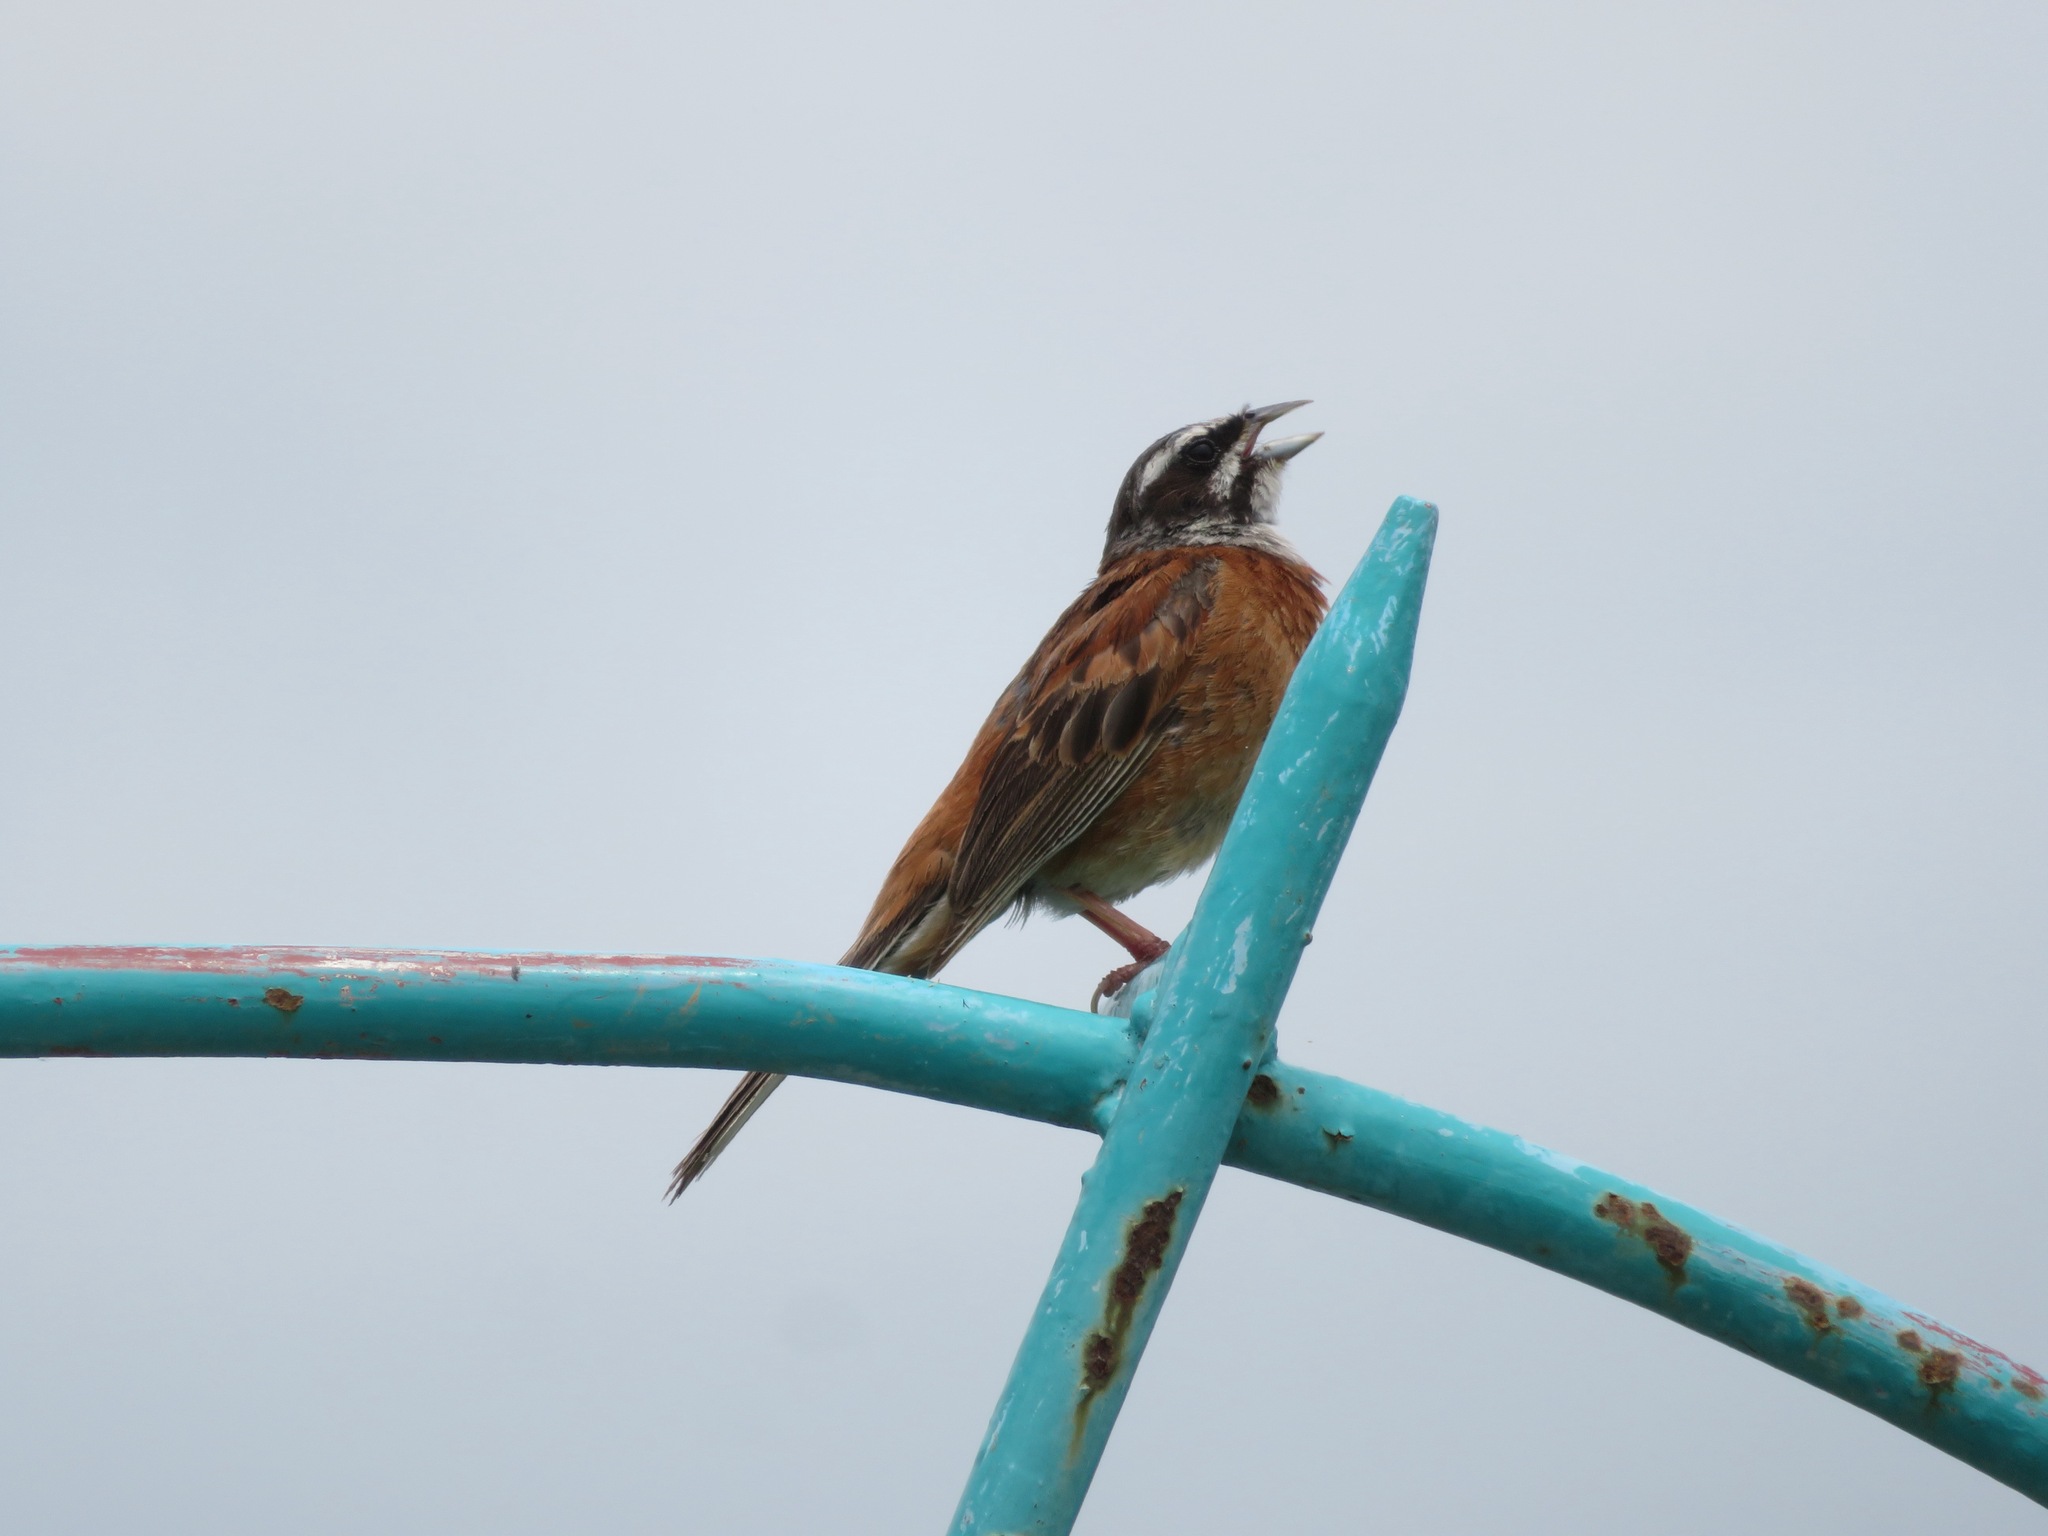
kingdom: Animalia
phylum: Chordata
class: Aves
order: Passeriformes
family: Emberizidae
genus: Emberiza
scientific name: Emberiza cioides
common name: Meadow bunting
